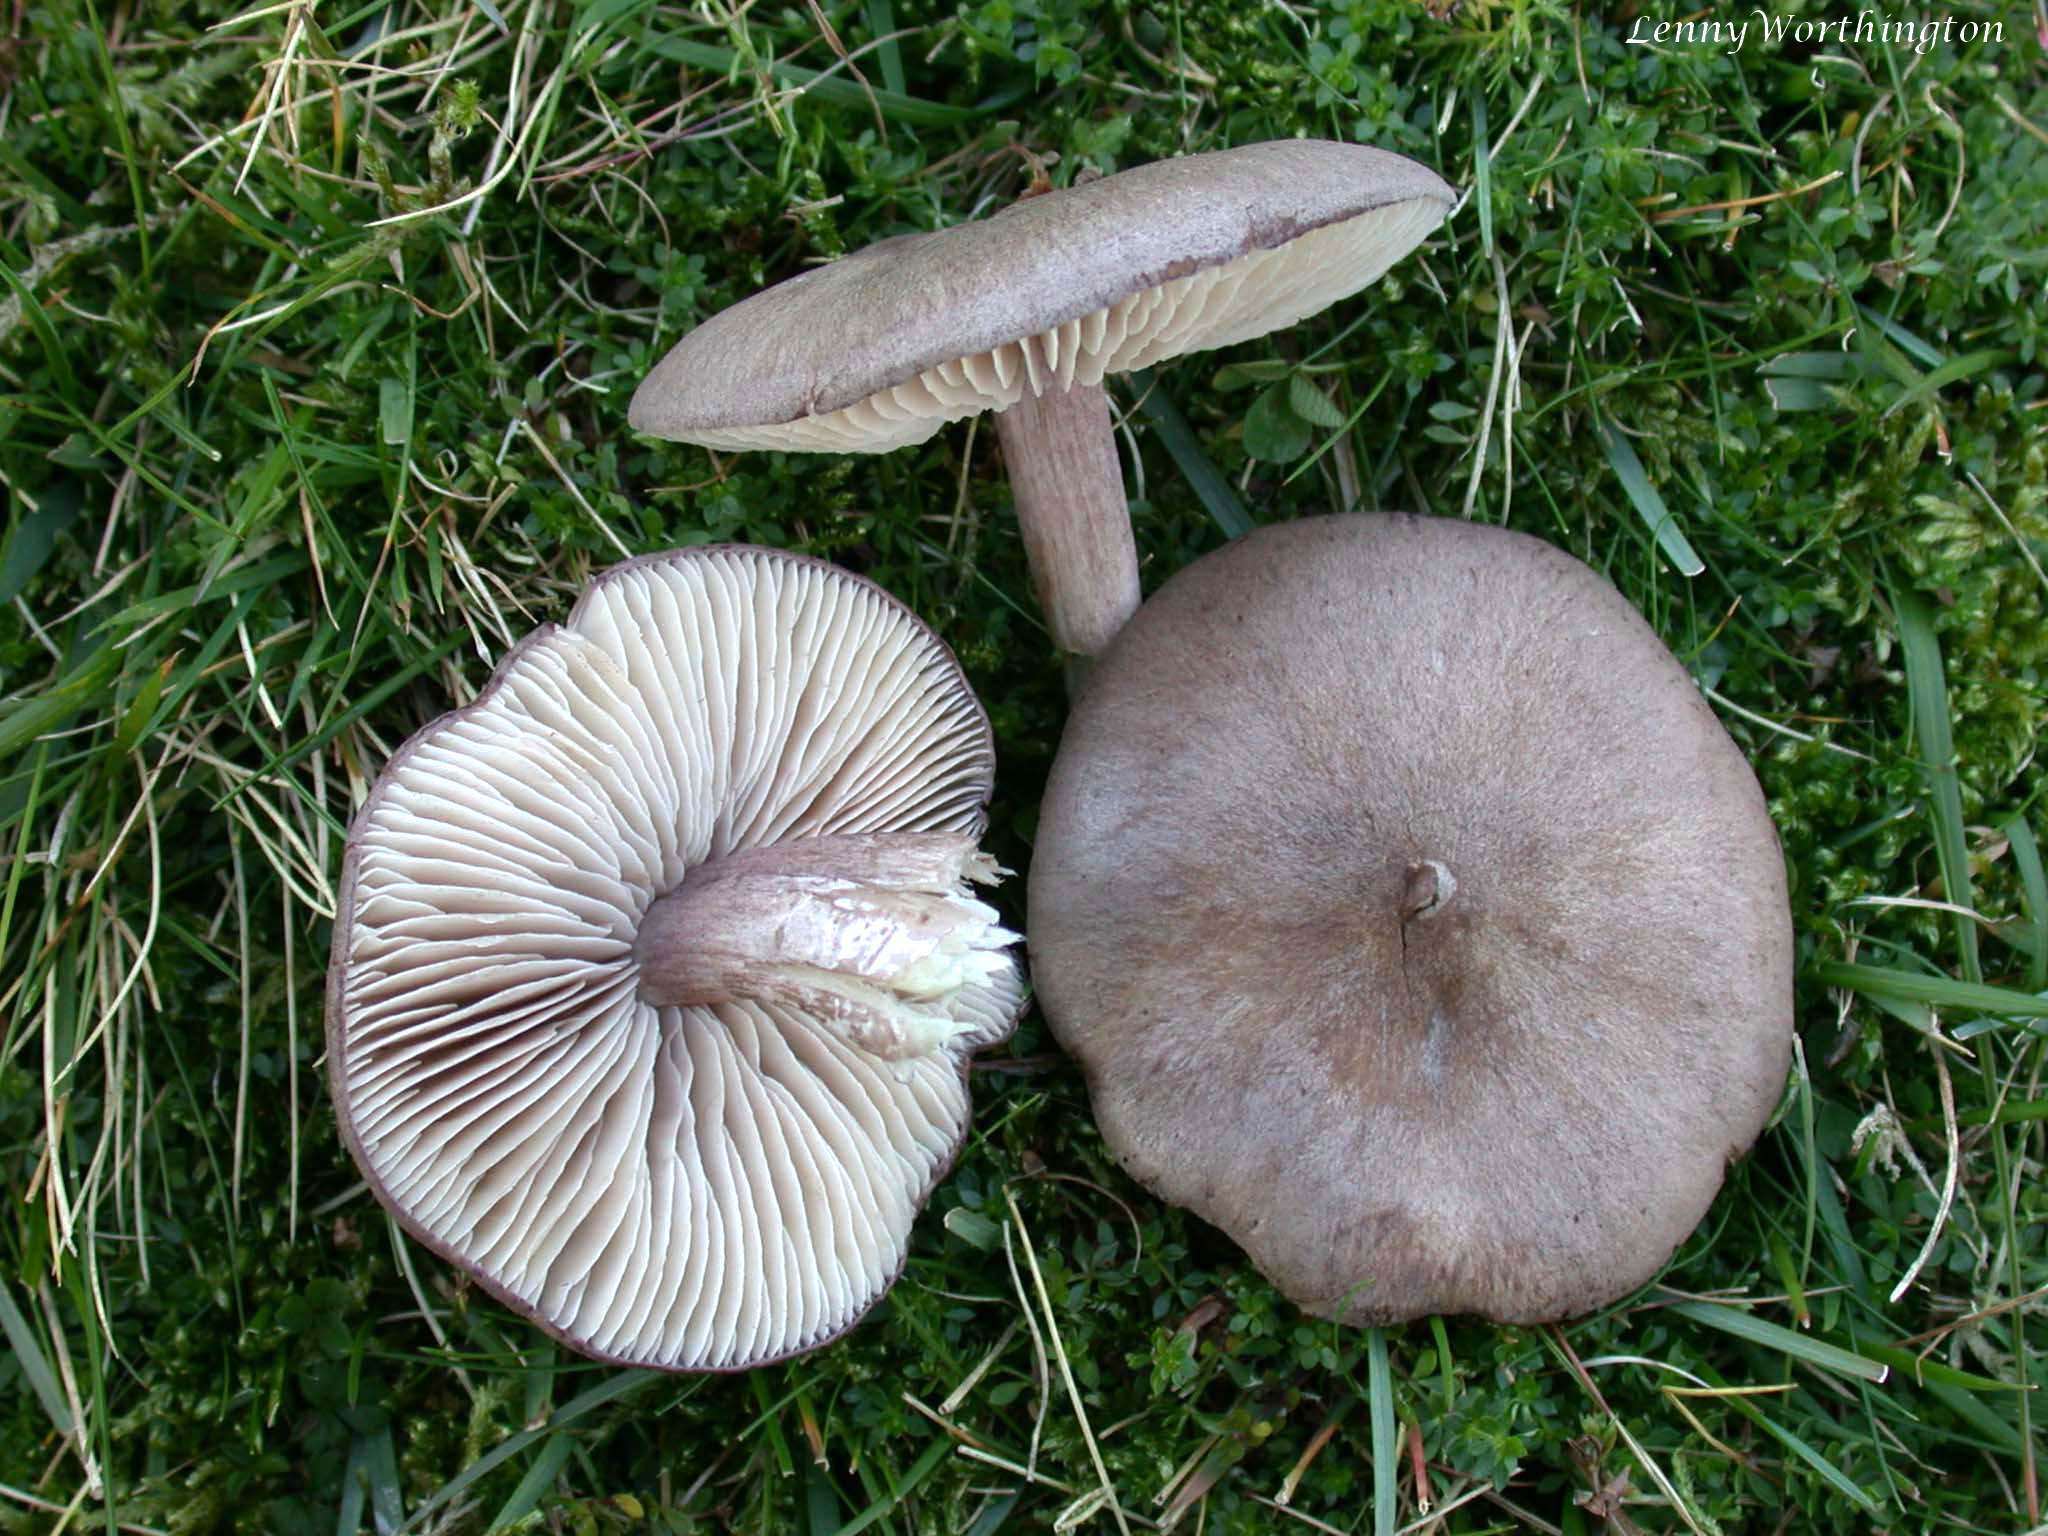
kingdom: Fungi
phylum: Basidiomycota
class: Agaricomycetes
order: Agaricales
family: Entolomataceae
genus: Entoloma
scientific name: Entoloma porphyrophaeum
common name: Lilac pinkgill
